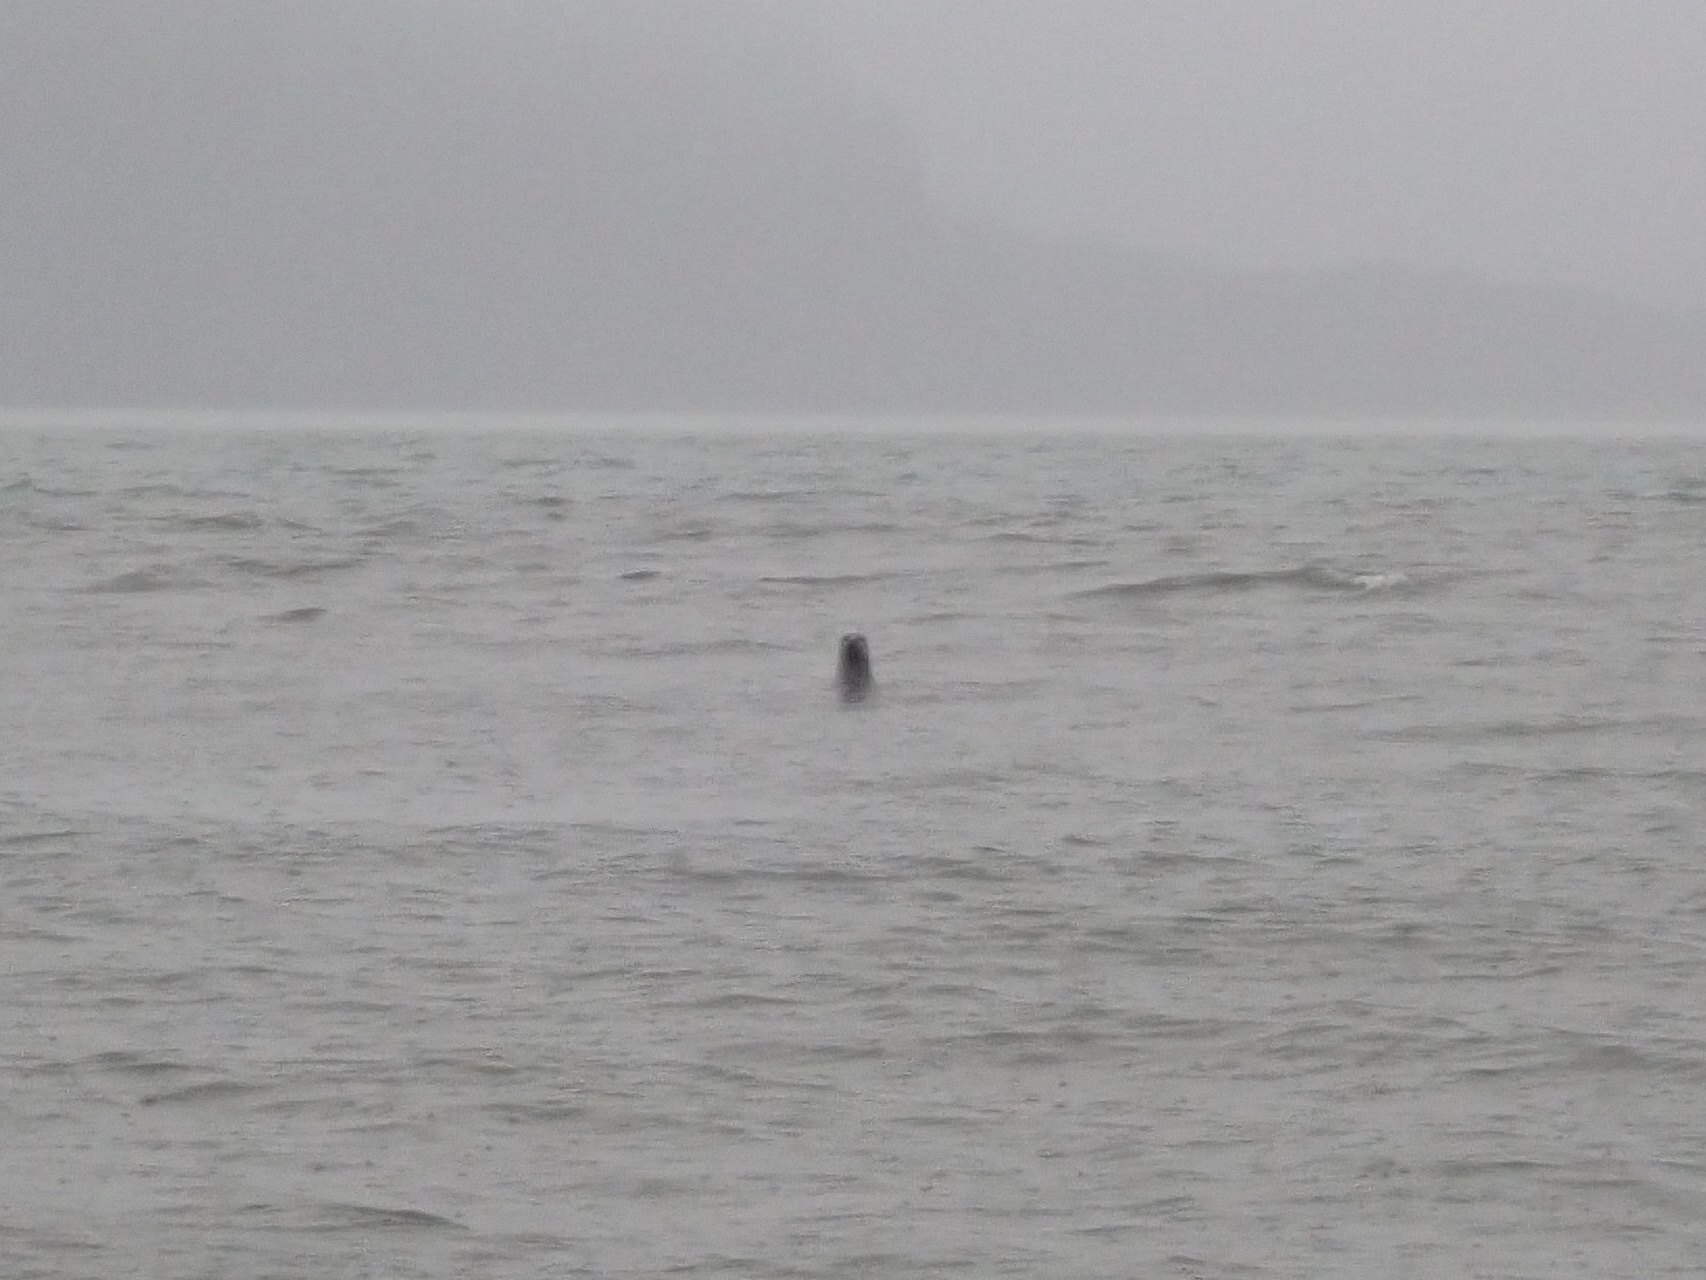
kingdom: Animalia
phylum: Chordata
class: Mammalia
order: Carnivora
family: Phocidae
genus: Phoca
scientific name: Phoca vitulina
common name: Harbor seal
